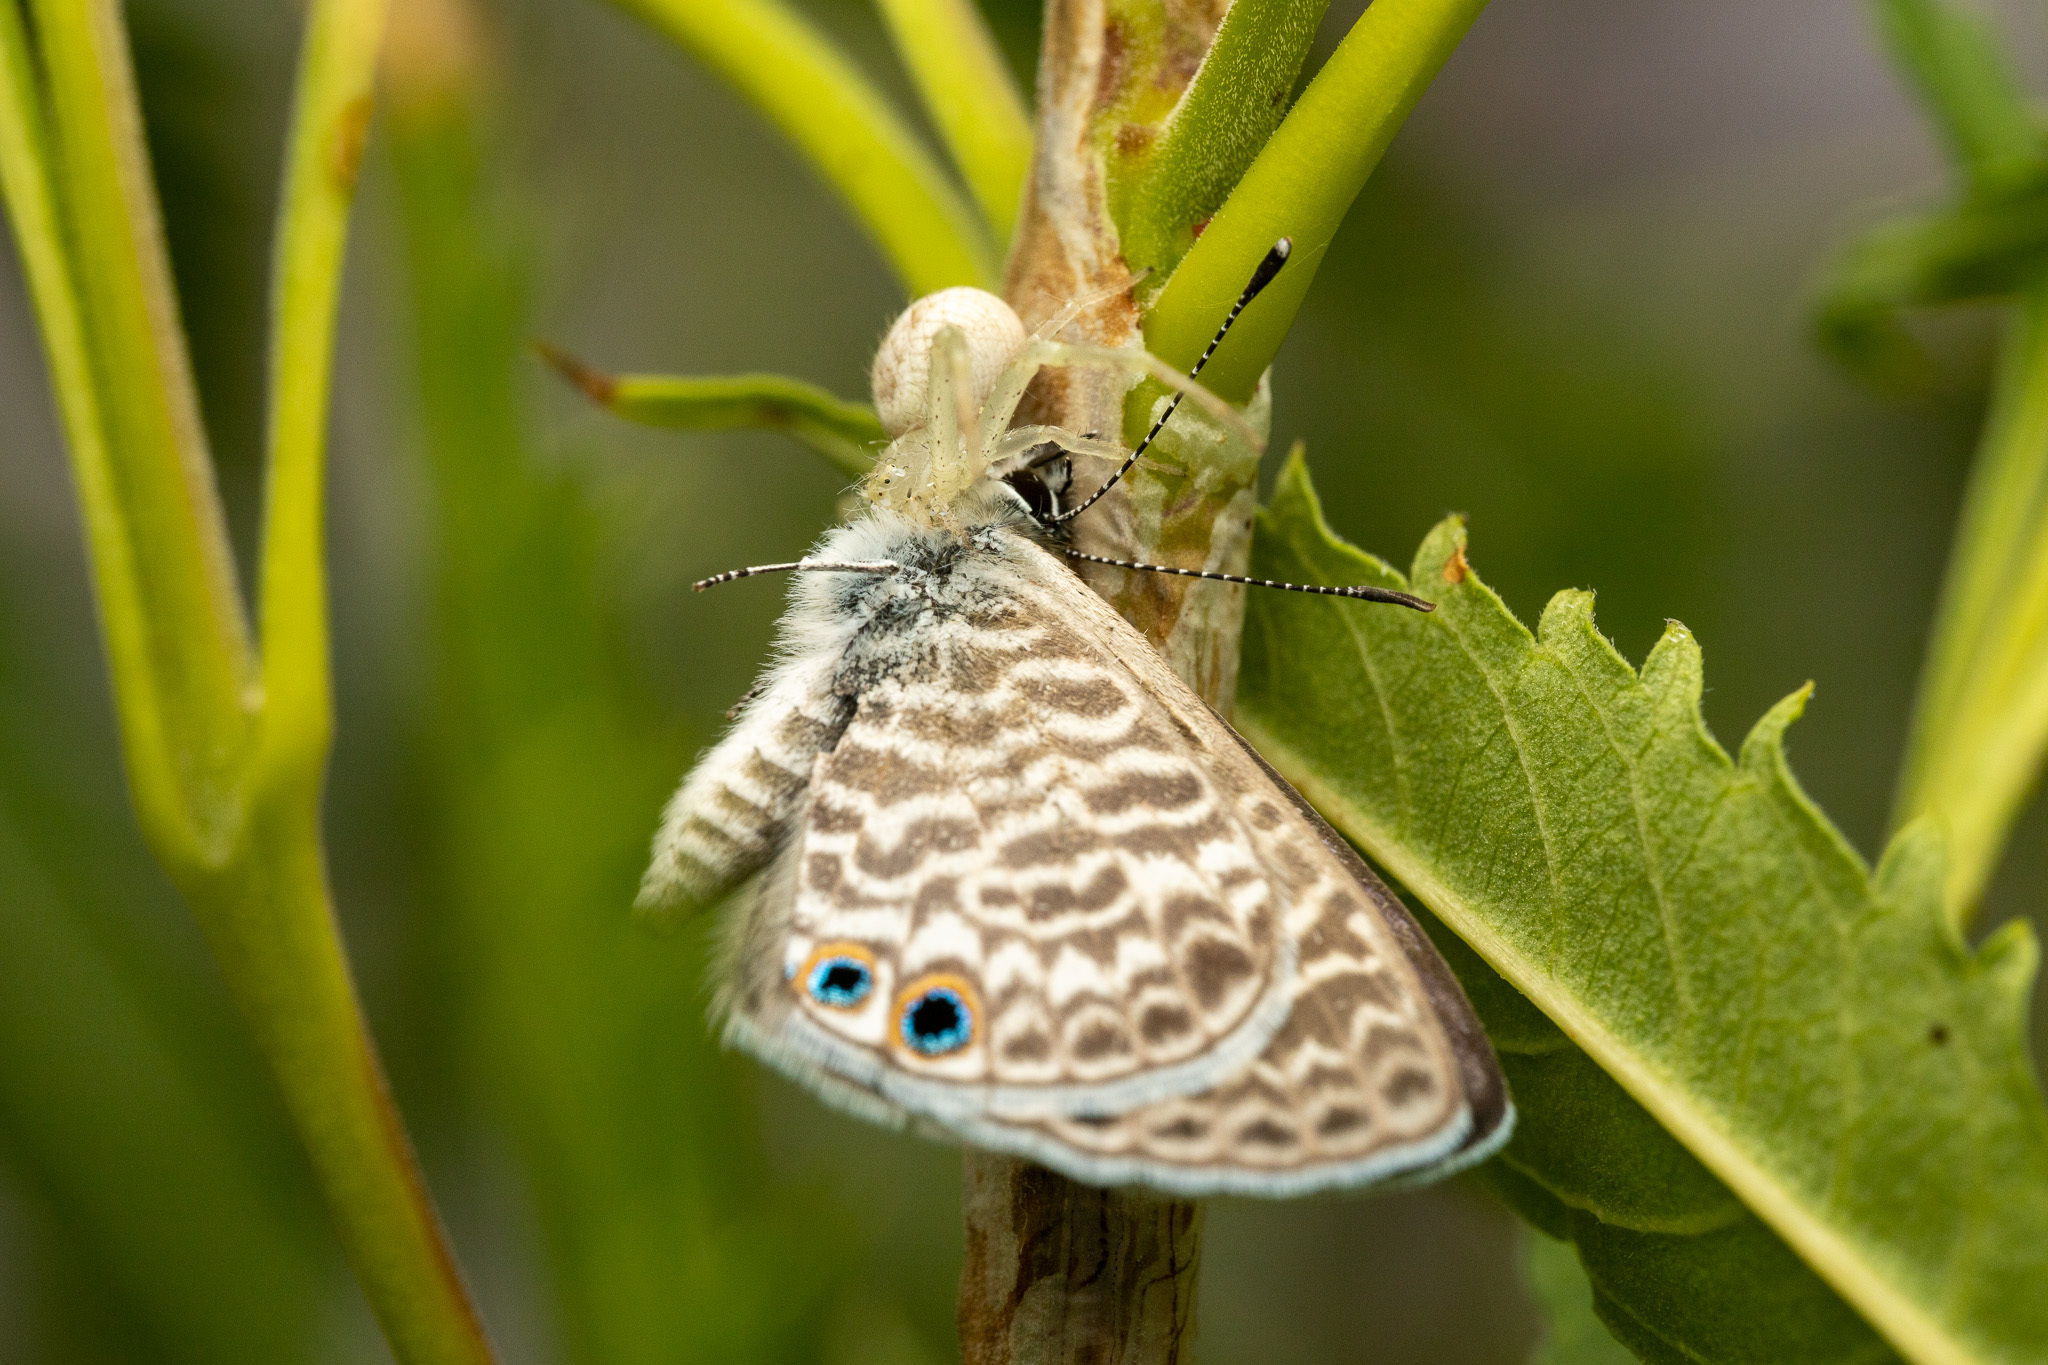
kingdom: Animalia
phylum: Arthropoda
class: Insecta
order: Lepidoptera
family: Lycaenidae
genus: Leptotes
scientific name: Leptotes marina
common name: Marine blue
